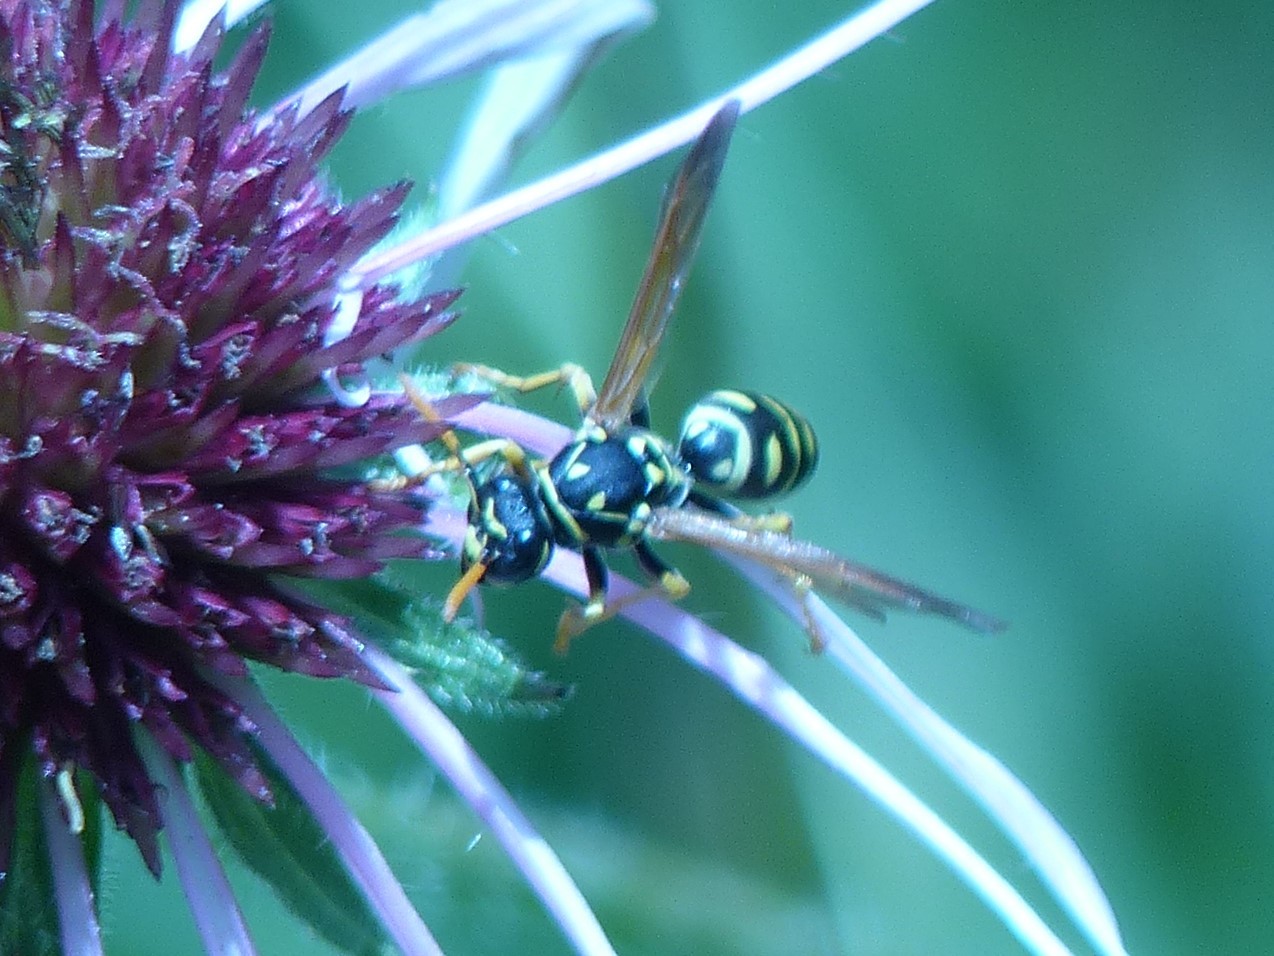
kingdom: Animalia
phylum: Arthropoda
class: Insecta
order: Hymenoptera
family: Eumenidae
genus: Polistes
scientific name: Polistes dominula
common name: Paper wasp
